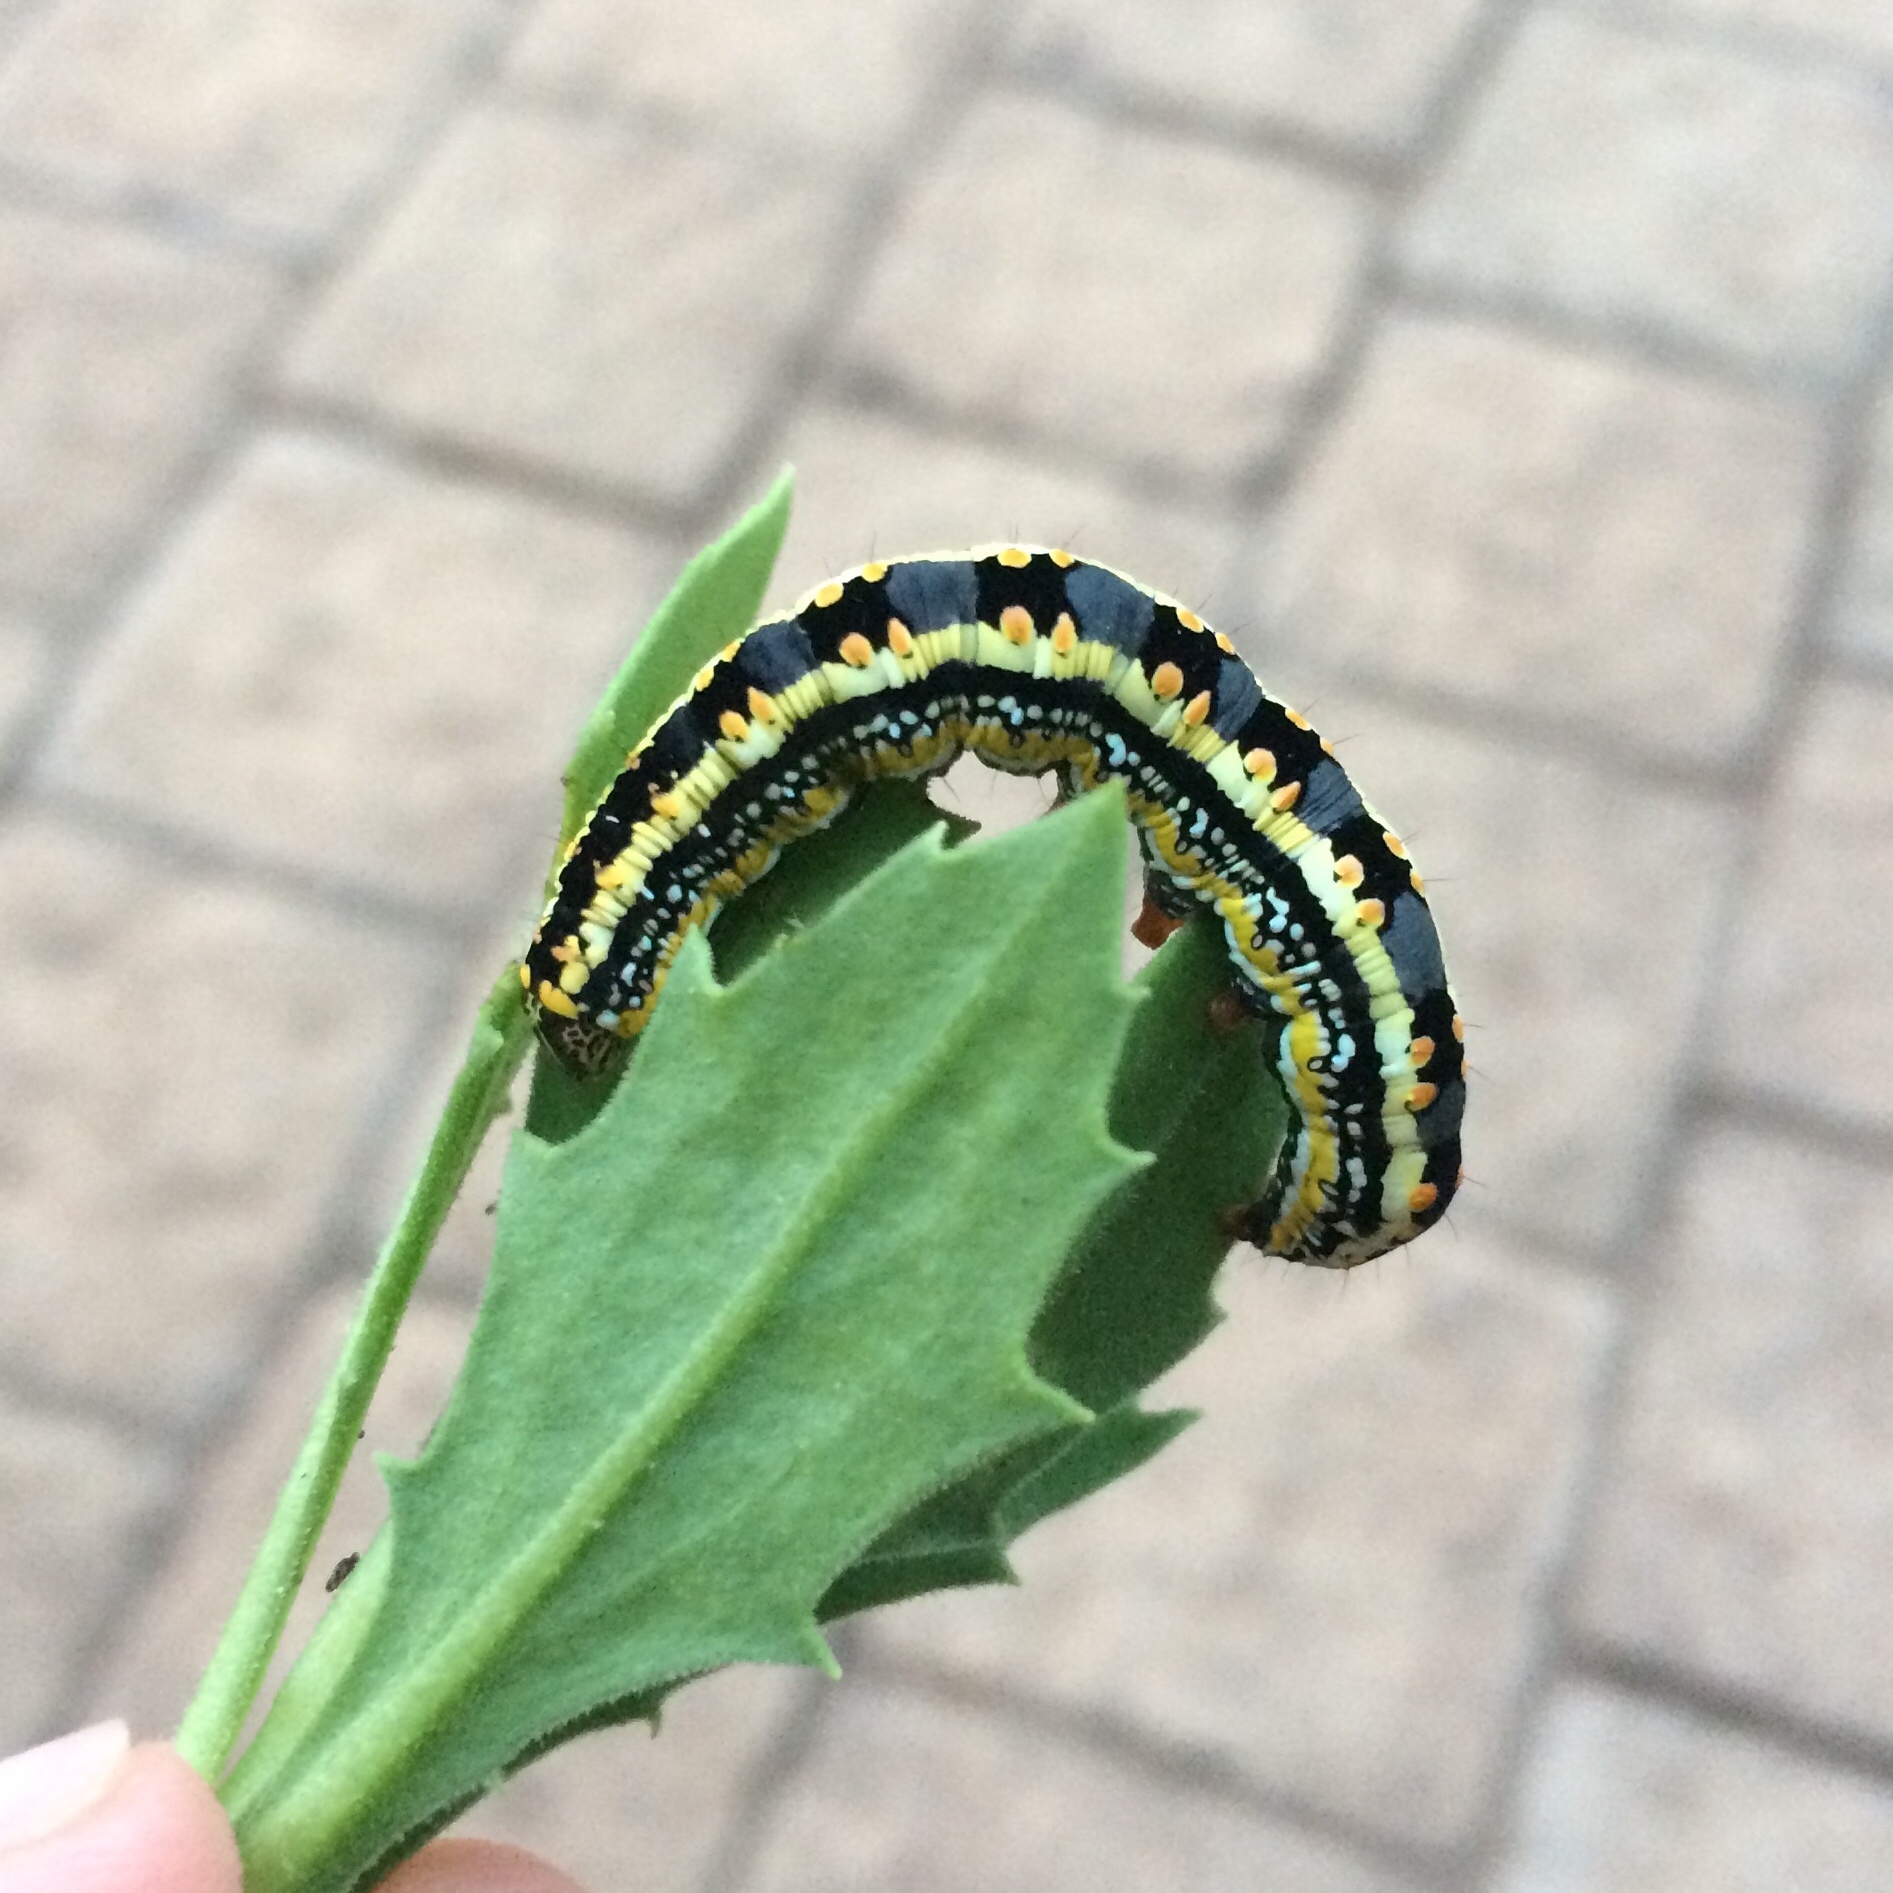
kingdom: Animalia
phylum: Arthropoda
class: Insecta
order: Lepidoptera
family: Noctuidae
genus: Cucullia
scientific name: Cucullia inaequalis
